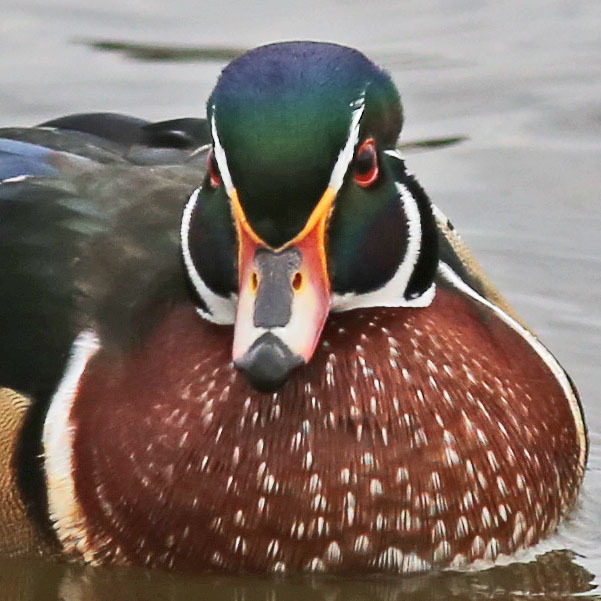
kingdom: Animalia
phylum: Chordata
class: Aves
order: Anseriformes
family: Anatidae
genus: Aix
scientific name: Aix sponsa
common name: Wood duck
